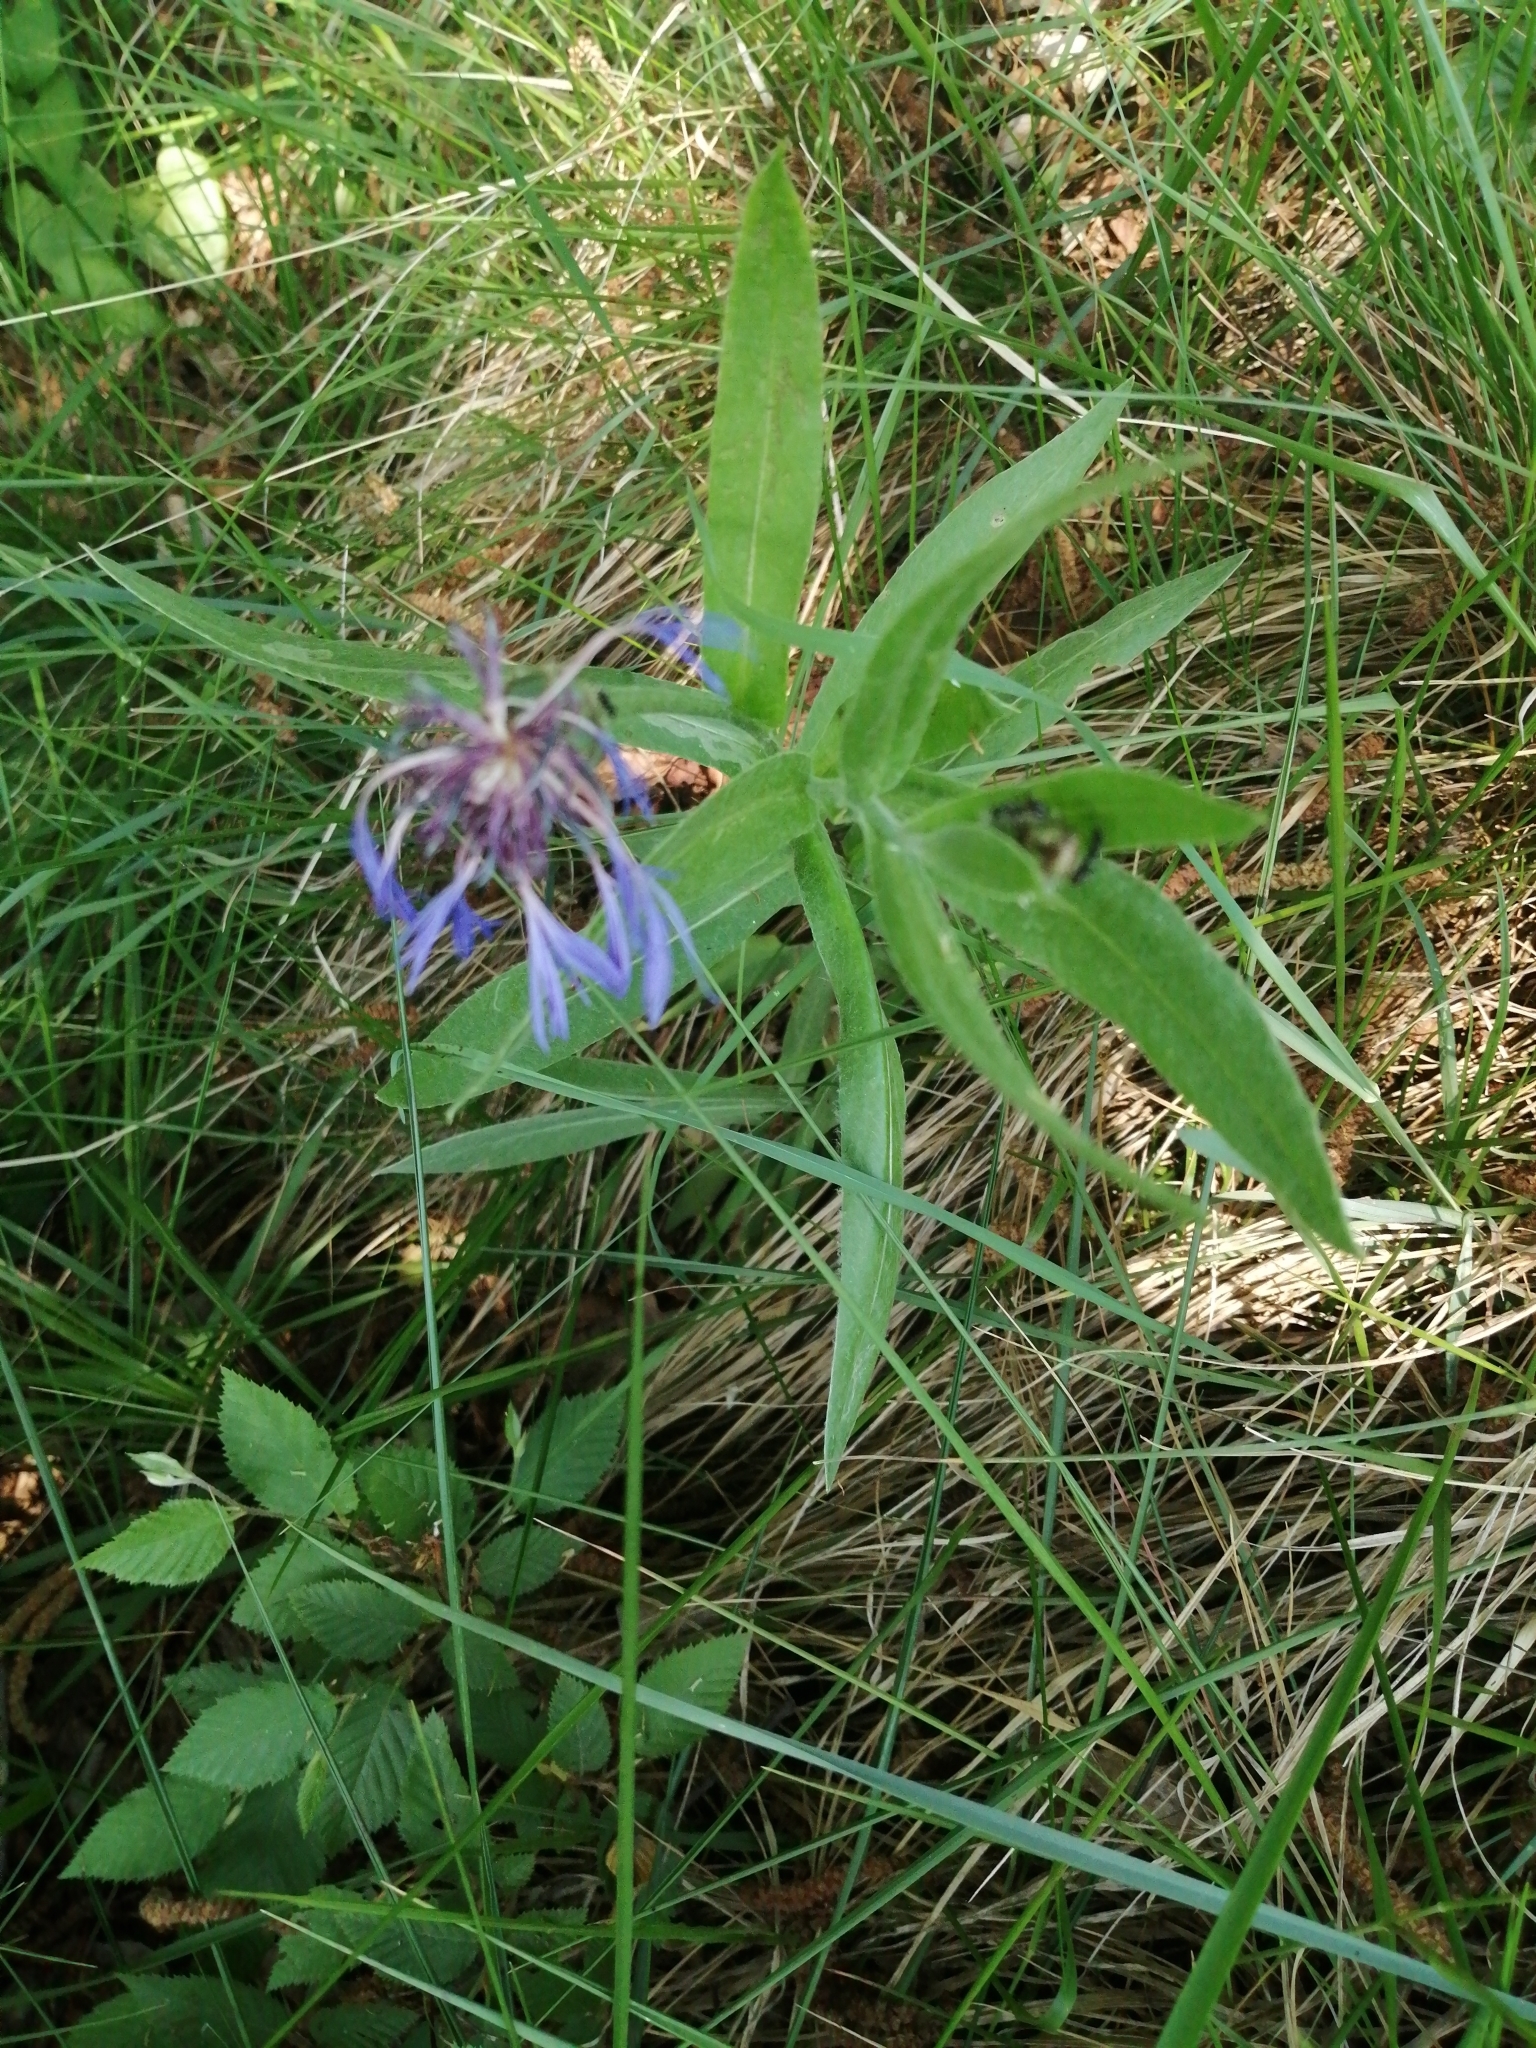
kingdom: Plantae
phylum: Tracheophyta
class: Magnoliopsida
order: Asterales
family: Asteraceae
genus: Centaurea
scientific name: Centaurea triumfettii
